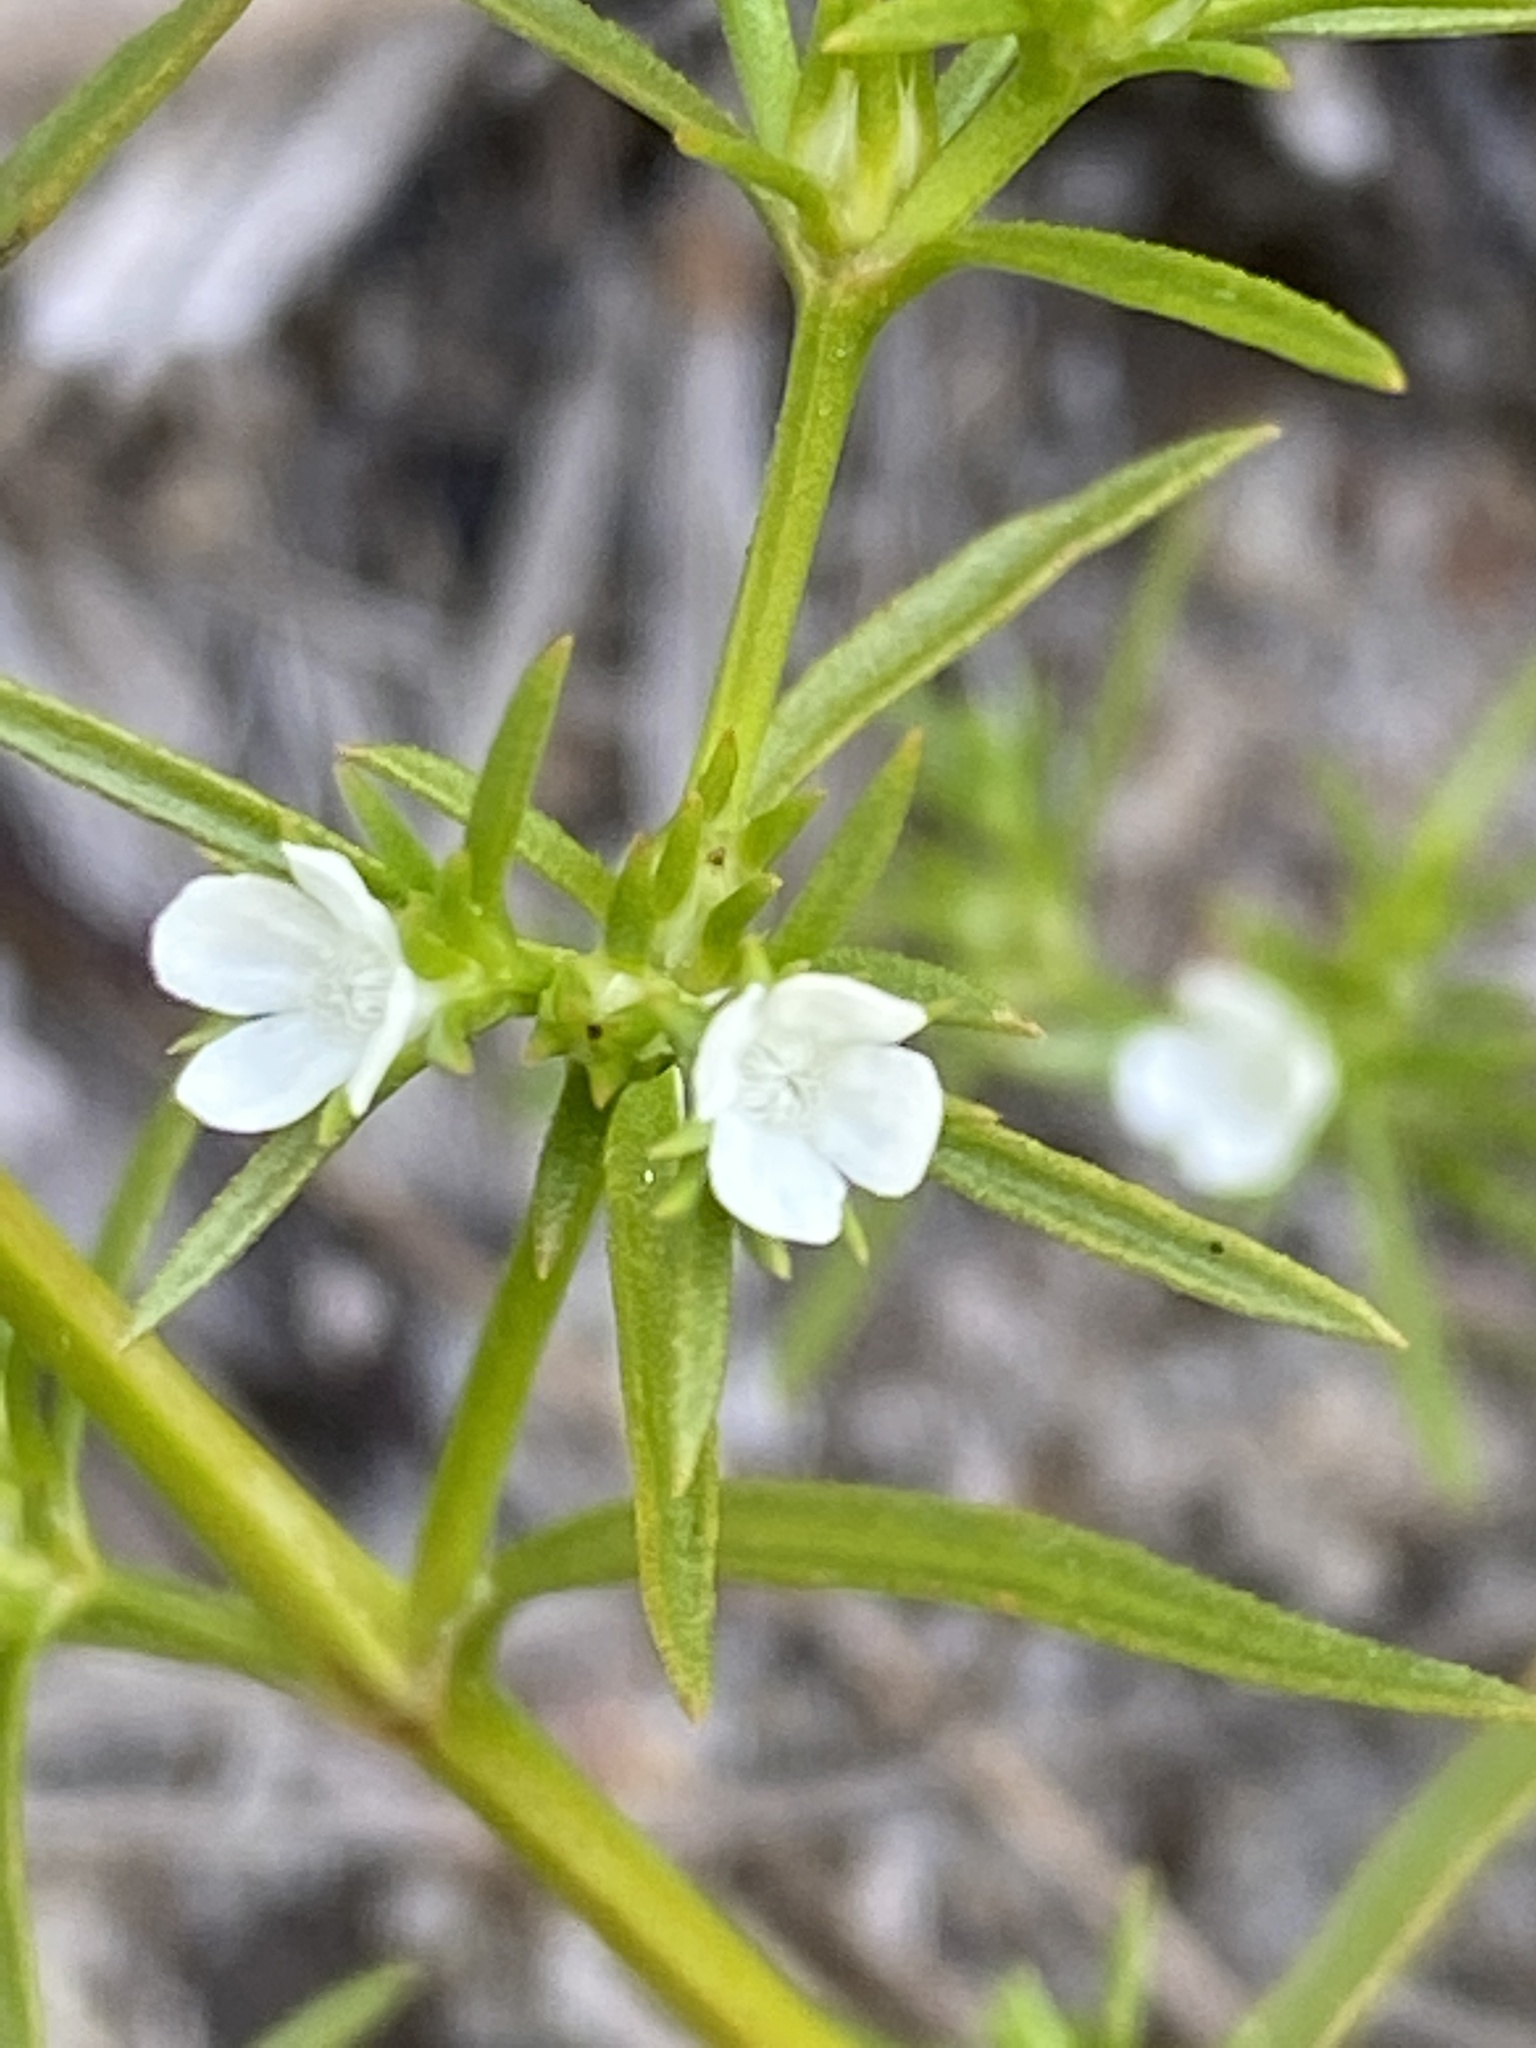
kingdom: Plantae
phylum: Tracheophyta
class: Magnoliopsida
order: Lamiales
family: Tetrachondraceae
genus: Polypremum
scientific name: Polypremum procumbens
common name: Juniper-leaf
